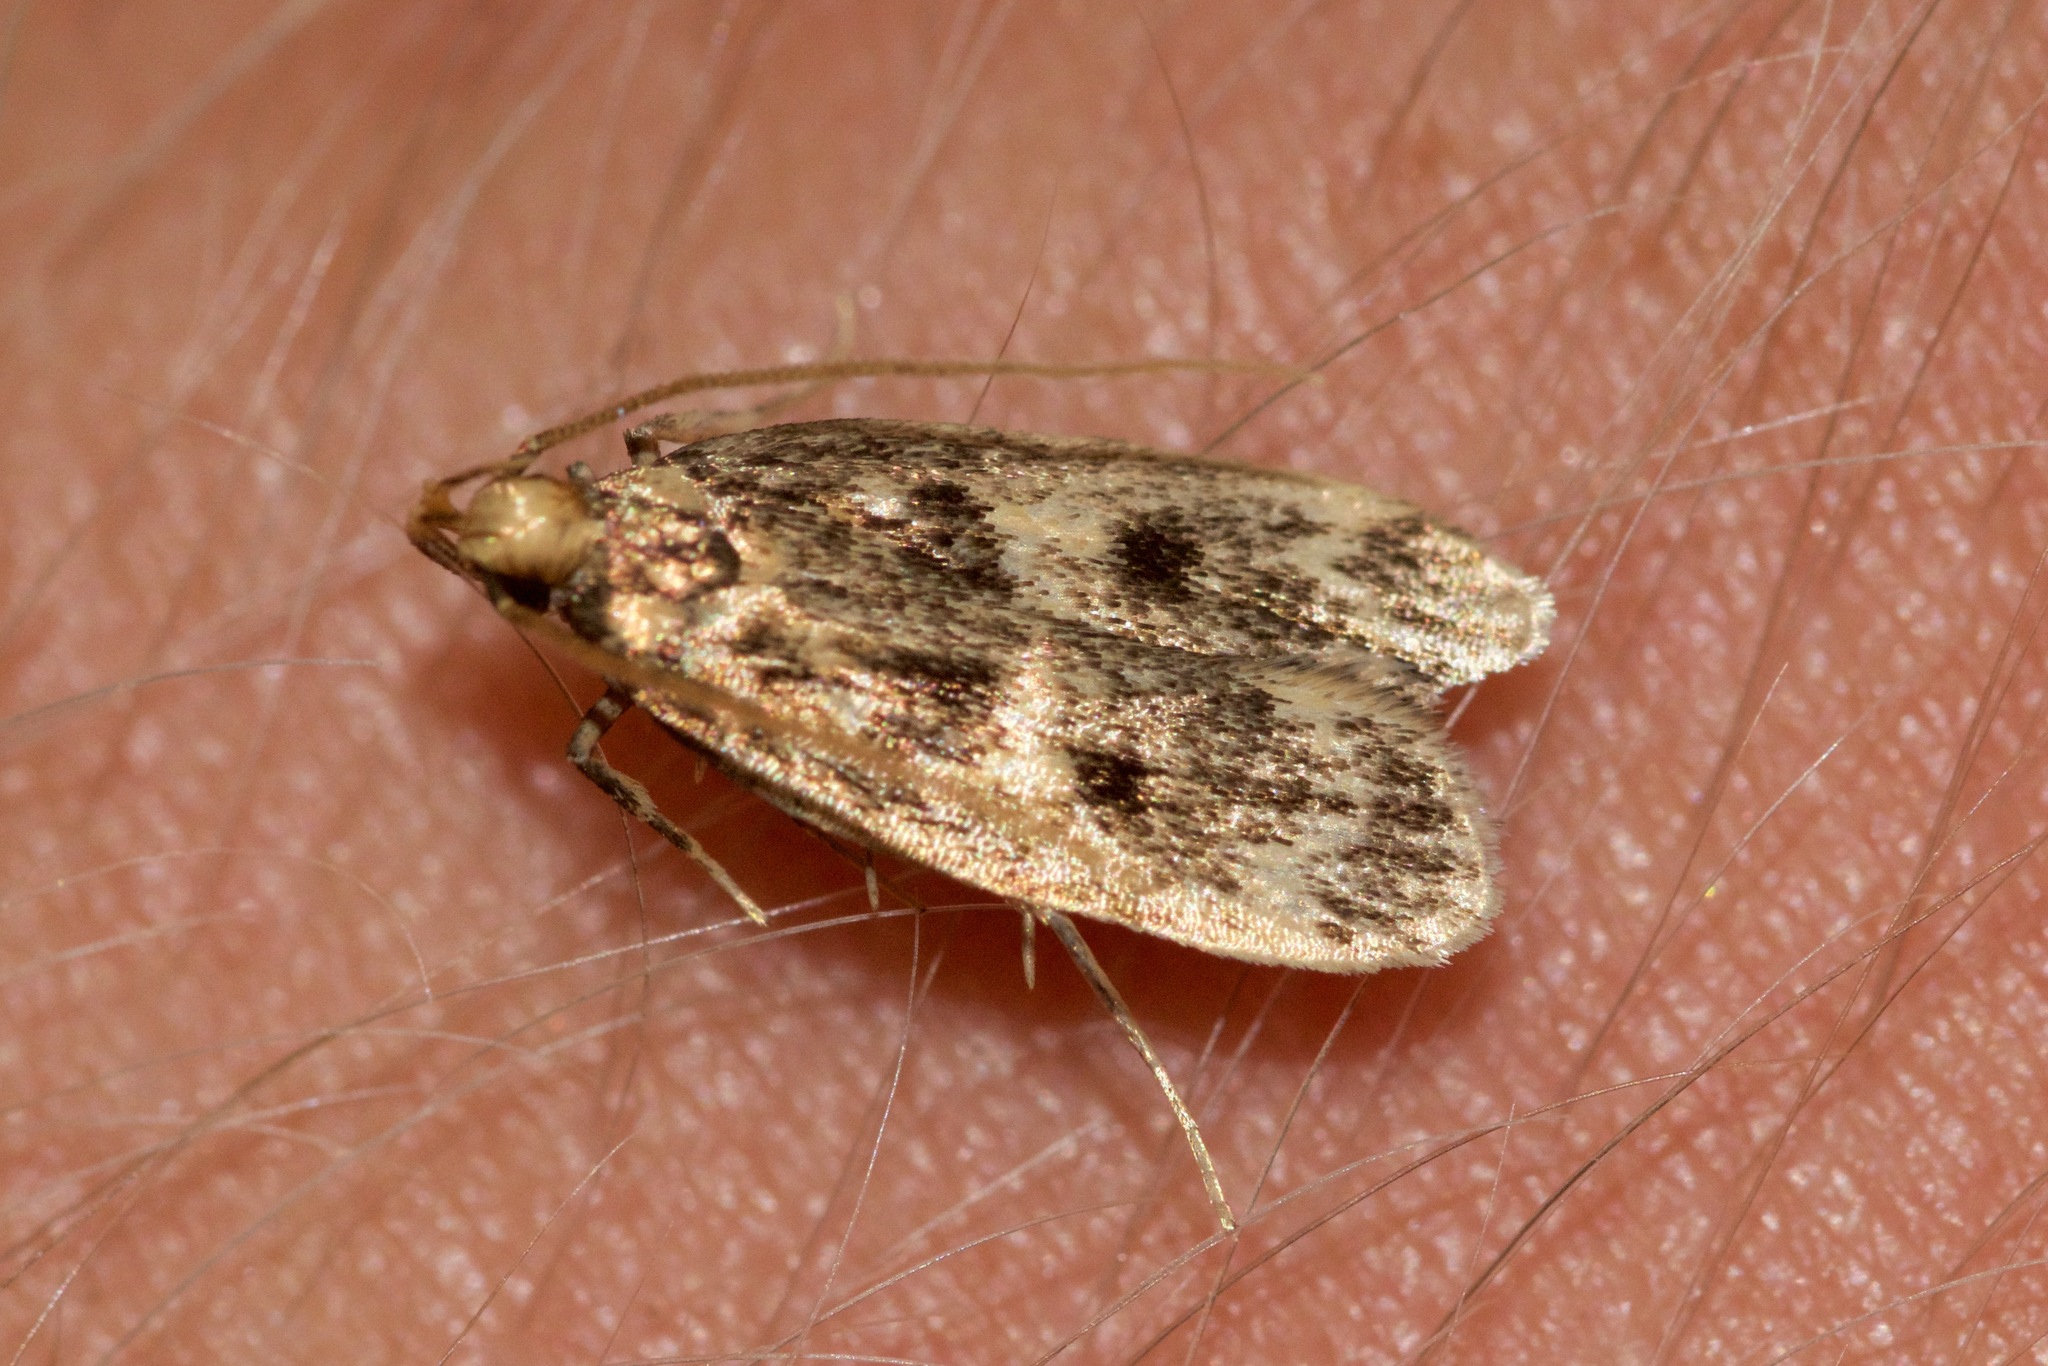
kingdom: Animalia
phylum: Arthropoda
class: Insecta
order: Lepidoptera
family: Lecithoceridae
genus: Martyringa
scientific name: Martyringa latipennis
